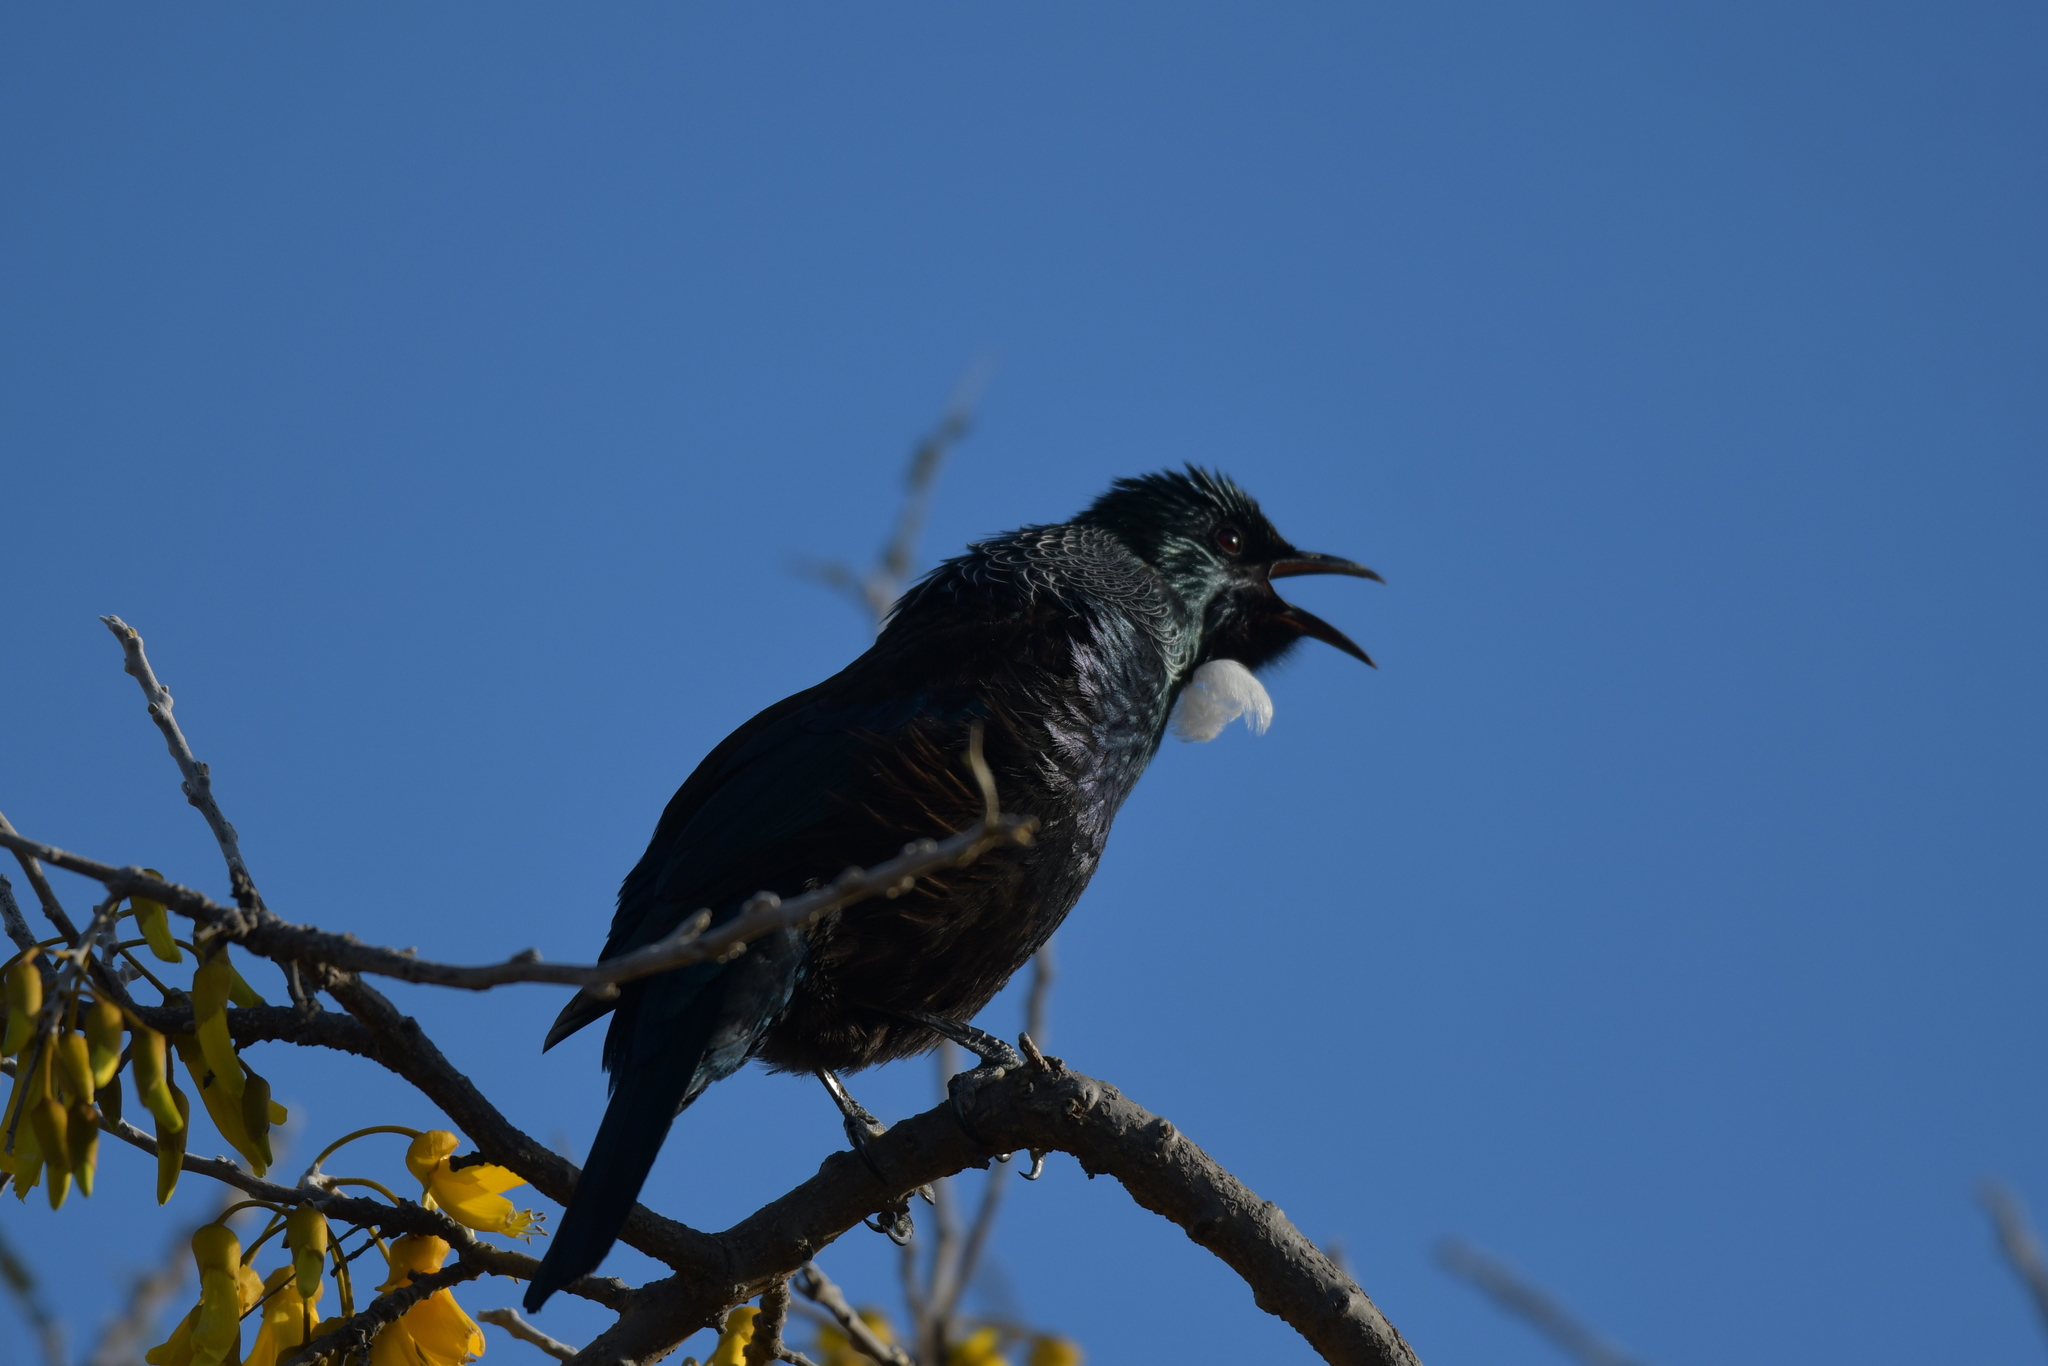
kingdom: Animalia
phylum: Chordata
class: Aves
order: Passeriformes
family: Meliphagidae
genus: Prosthemadera
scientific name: Prosthemadera novaeseelandiae
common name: Tui
